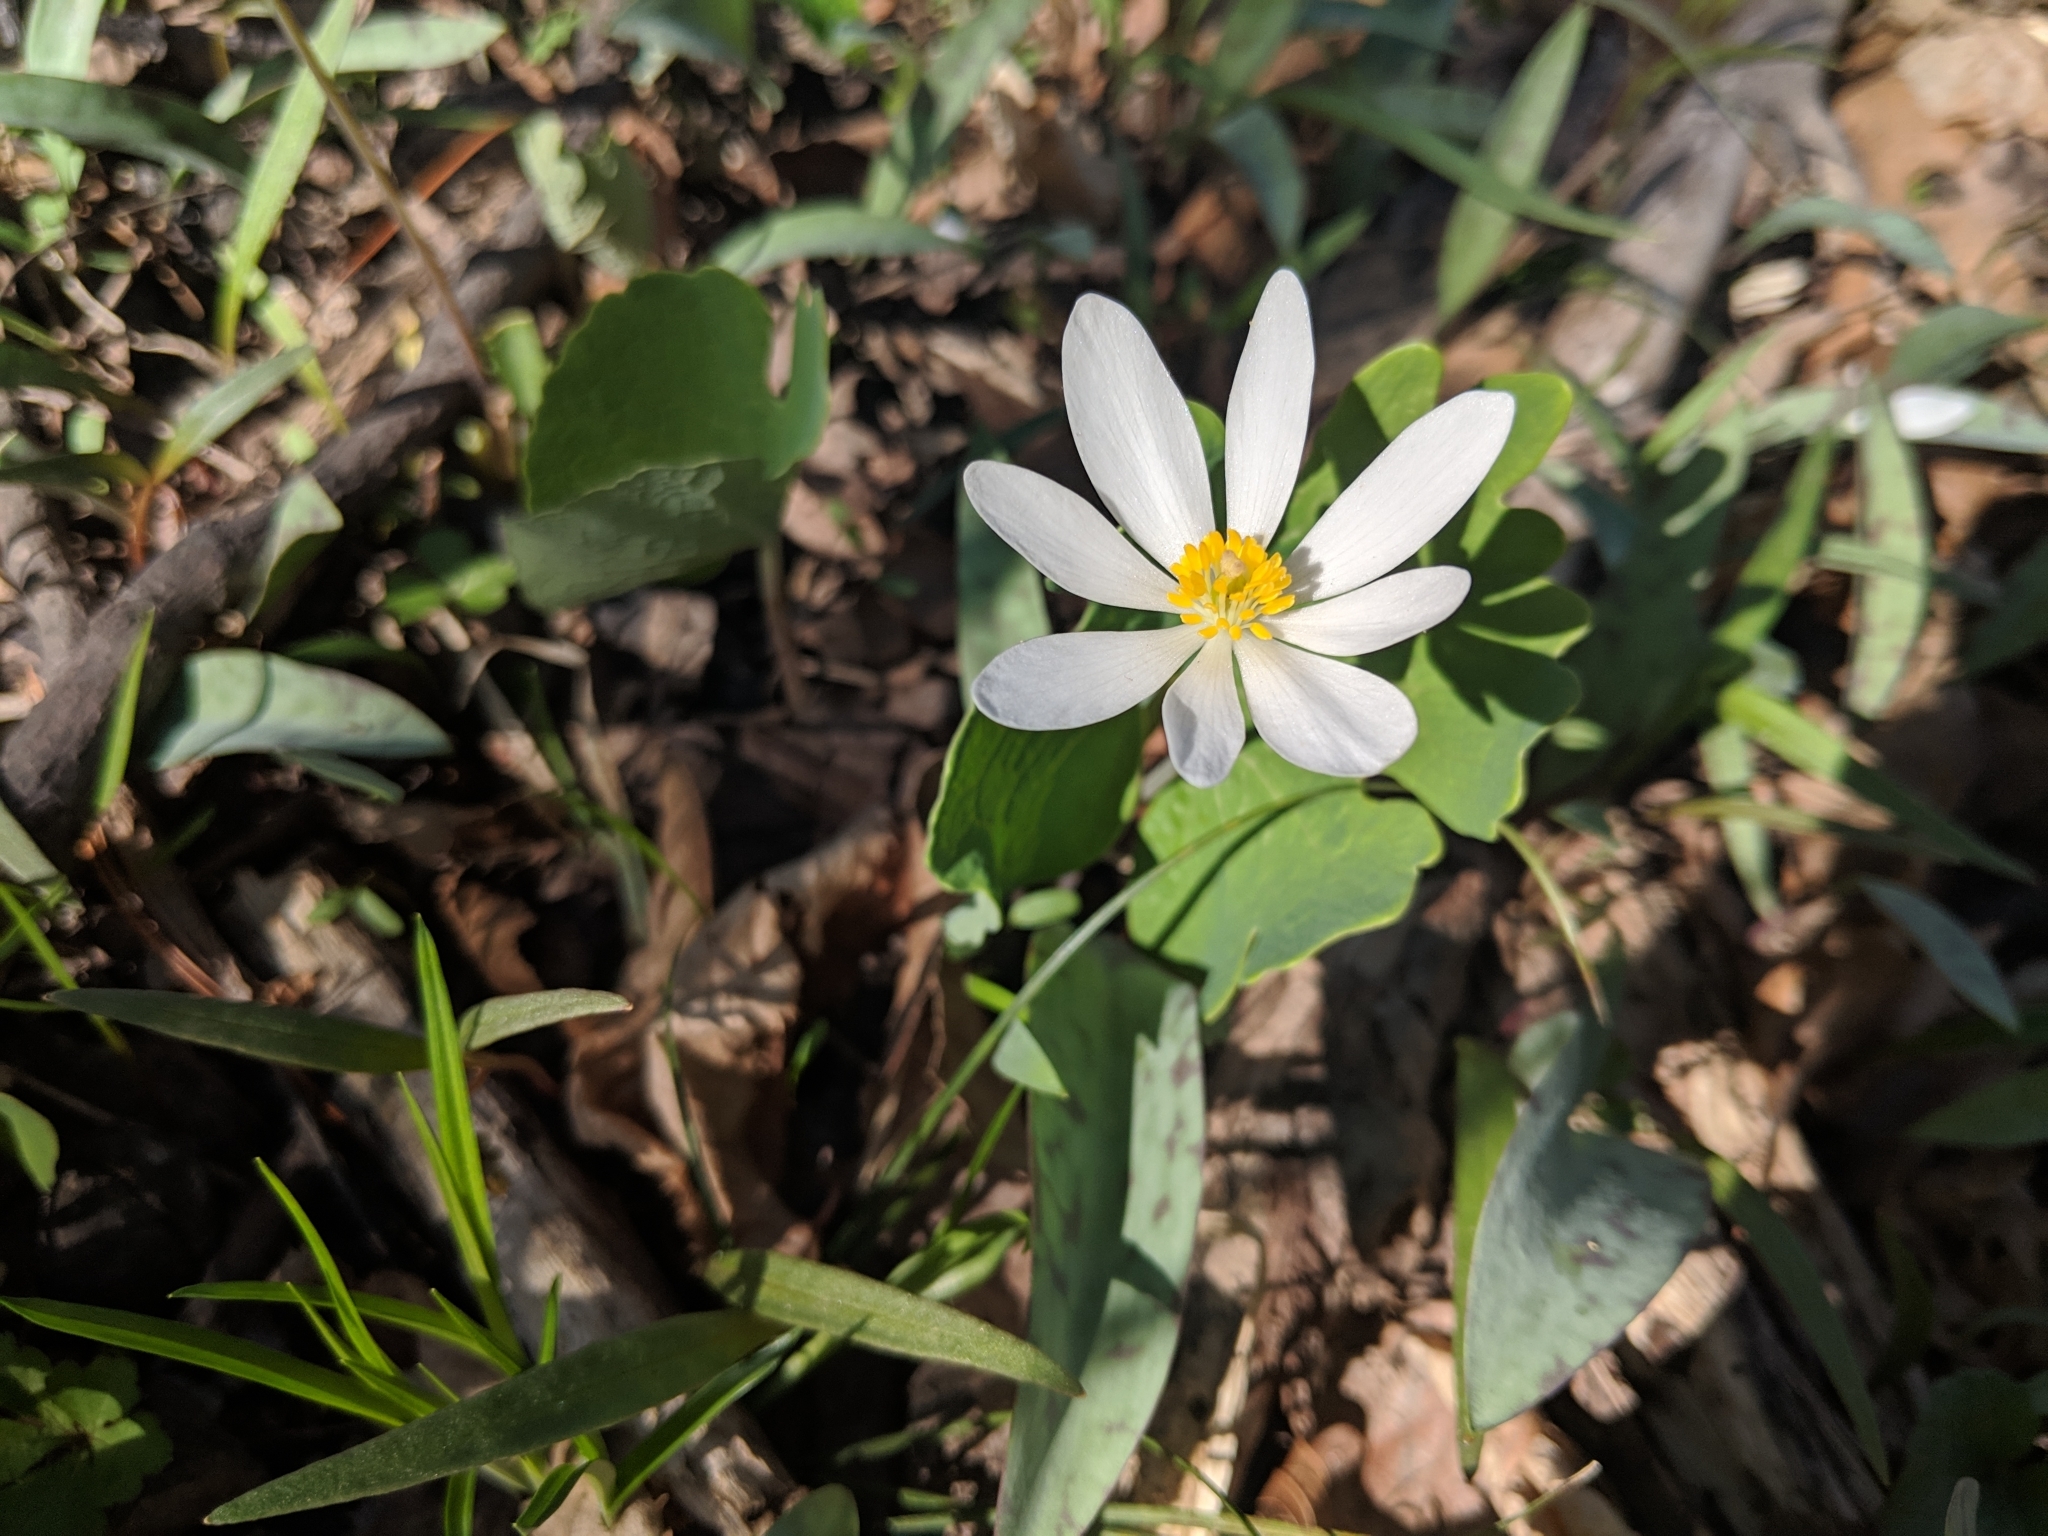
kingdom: Plantae
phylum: Tracheophyta
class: Magnoliopsida
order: Ranunculales
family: Papaveraceae
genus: Sanguinaria
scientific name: Sanguinaria canadensis
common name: Bloodroot
